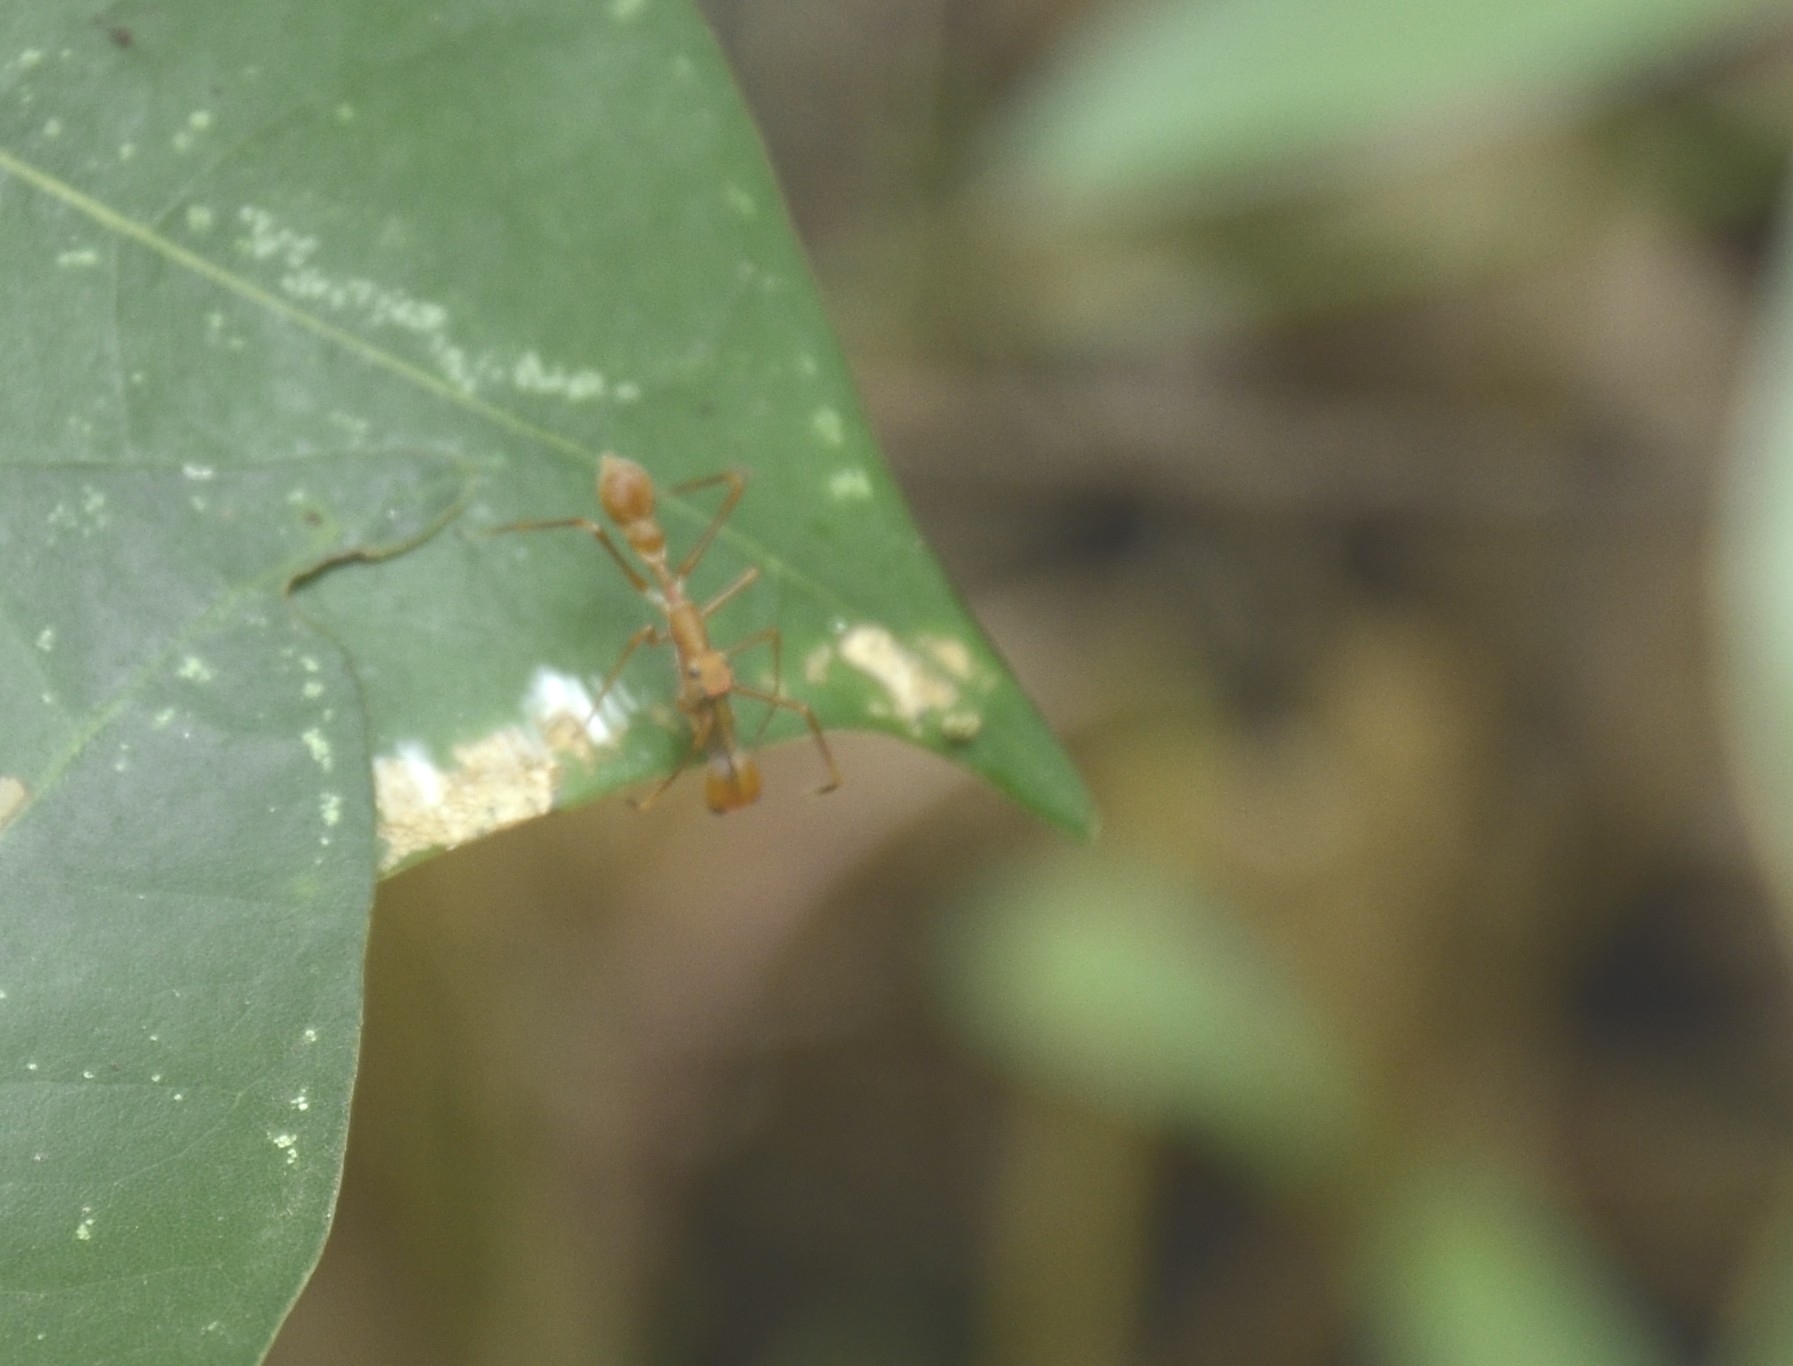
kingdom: Animalia
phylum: Arthropoda
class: Arachnida
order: Araneae
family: Salticidae
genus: Myrmaplata
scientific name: Myrmaplata plataleoides
